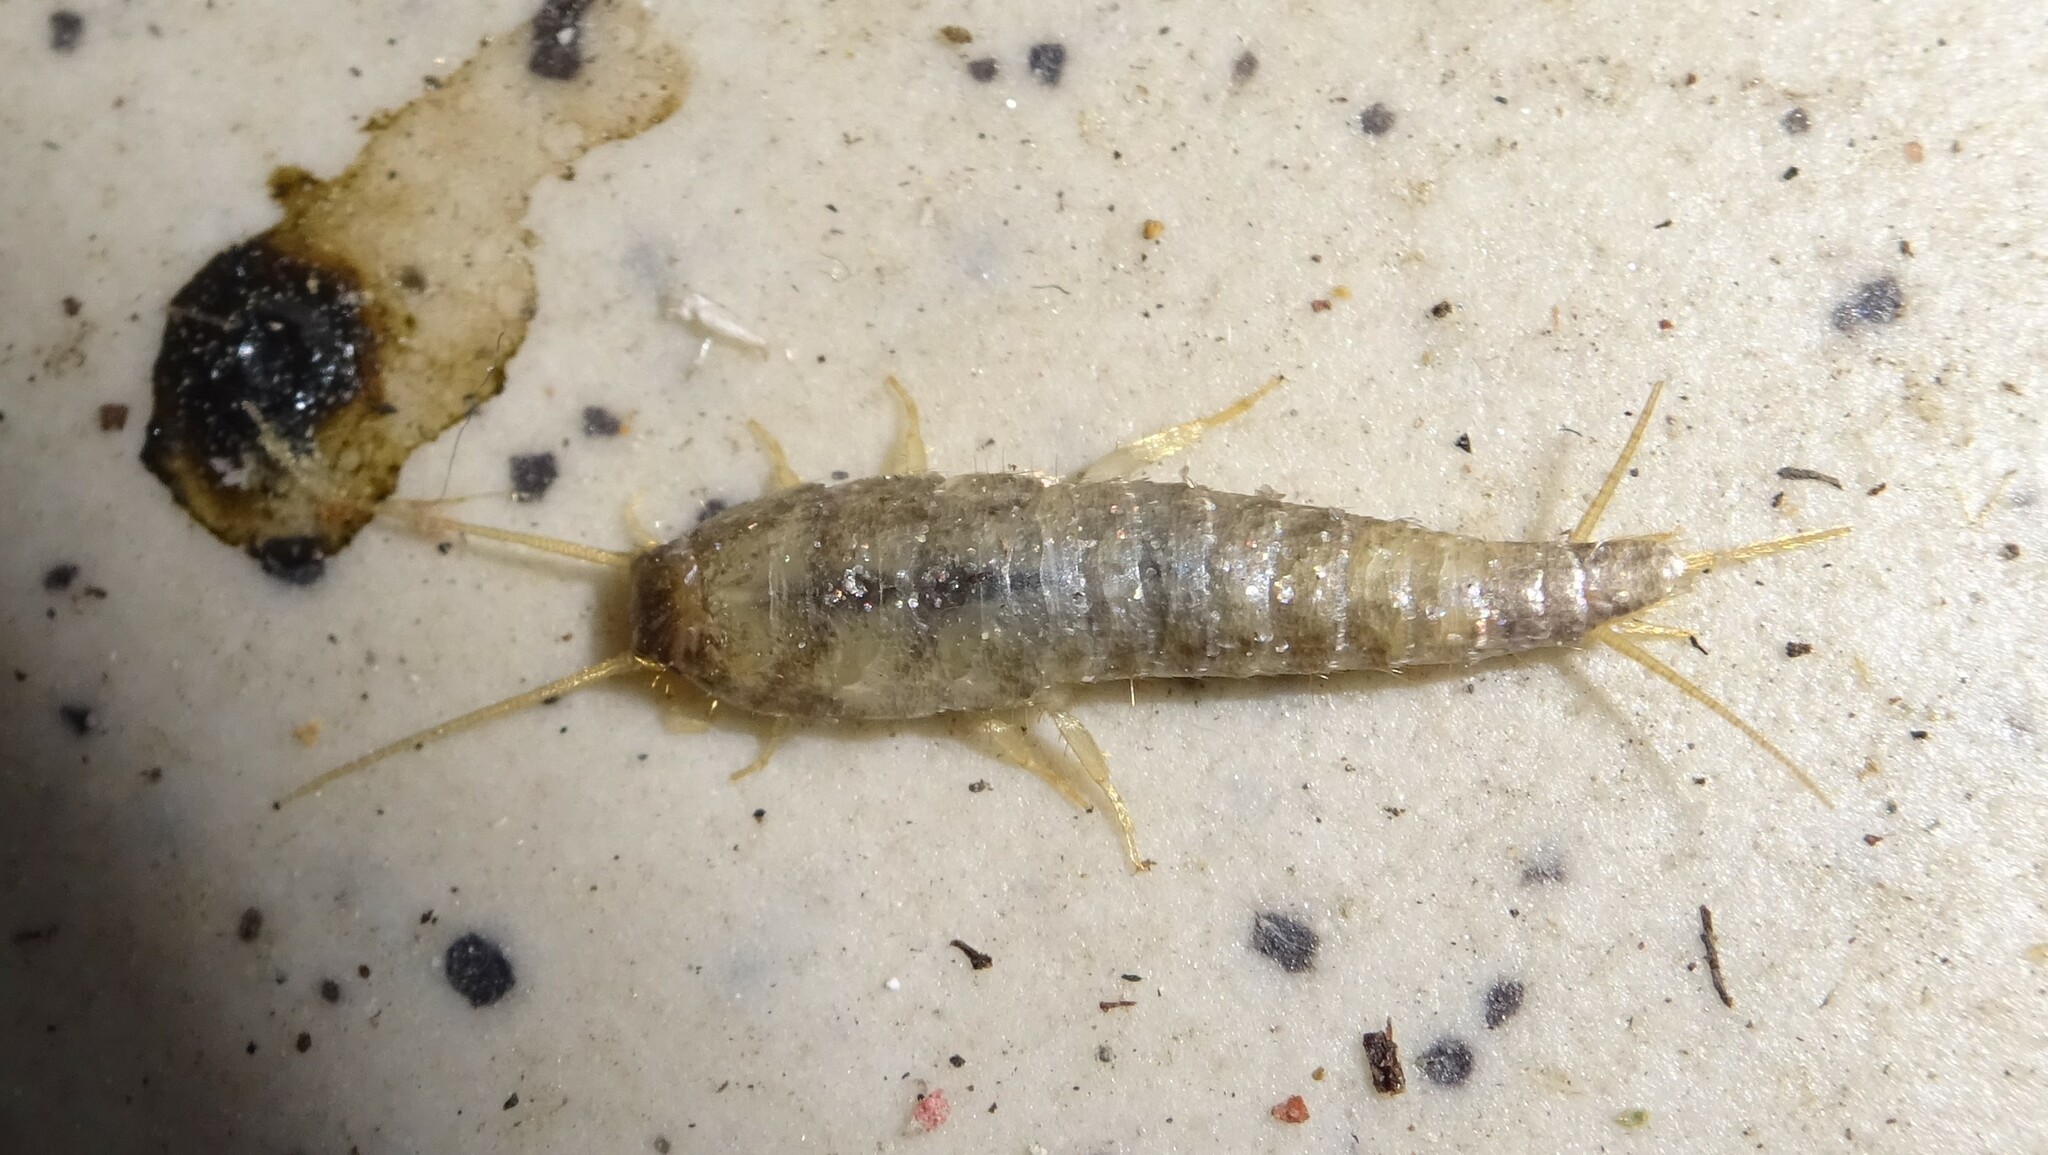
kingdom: Animalia
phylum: Arthropoda
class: Insecta
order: Zygentoma
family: Lepismatidae
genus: Lepisma
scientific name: Lepisma saccharinum
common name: Silverfish
